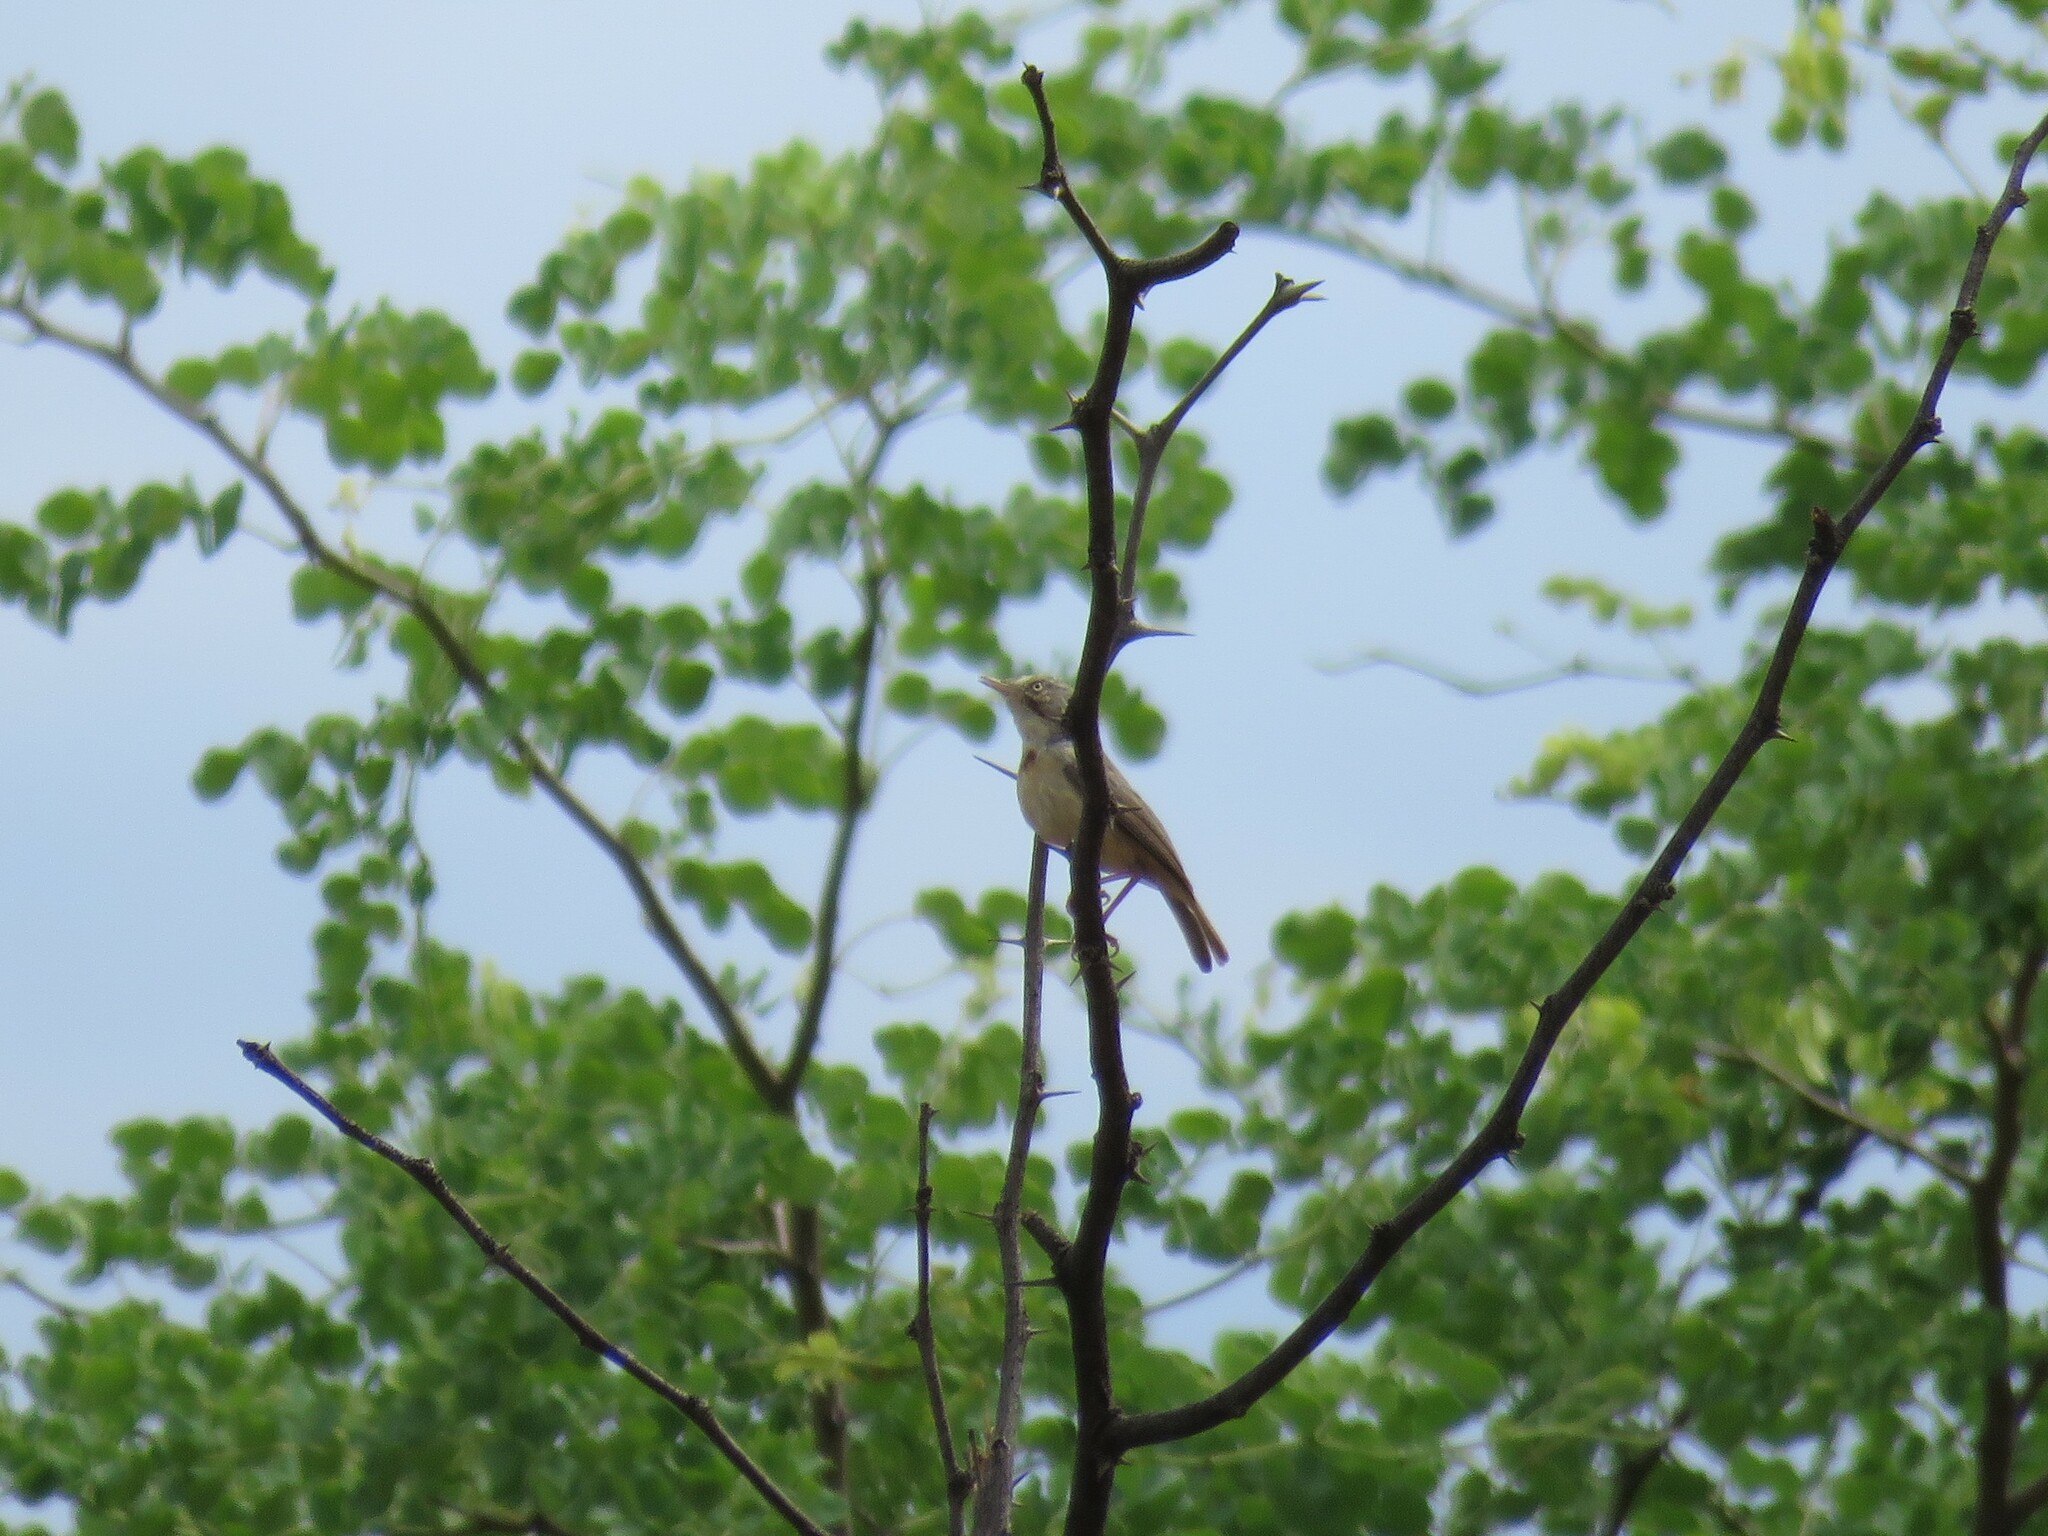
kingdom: Animalia
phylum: Chordata
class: Aves
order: Passeriformes
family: Cisticolidae
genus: Eremomela
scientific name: Eremomela usticollis
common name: Burnt-neck eremomela
